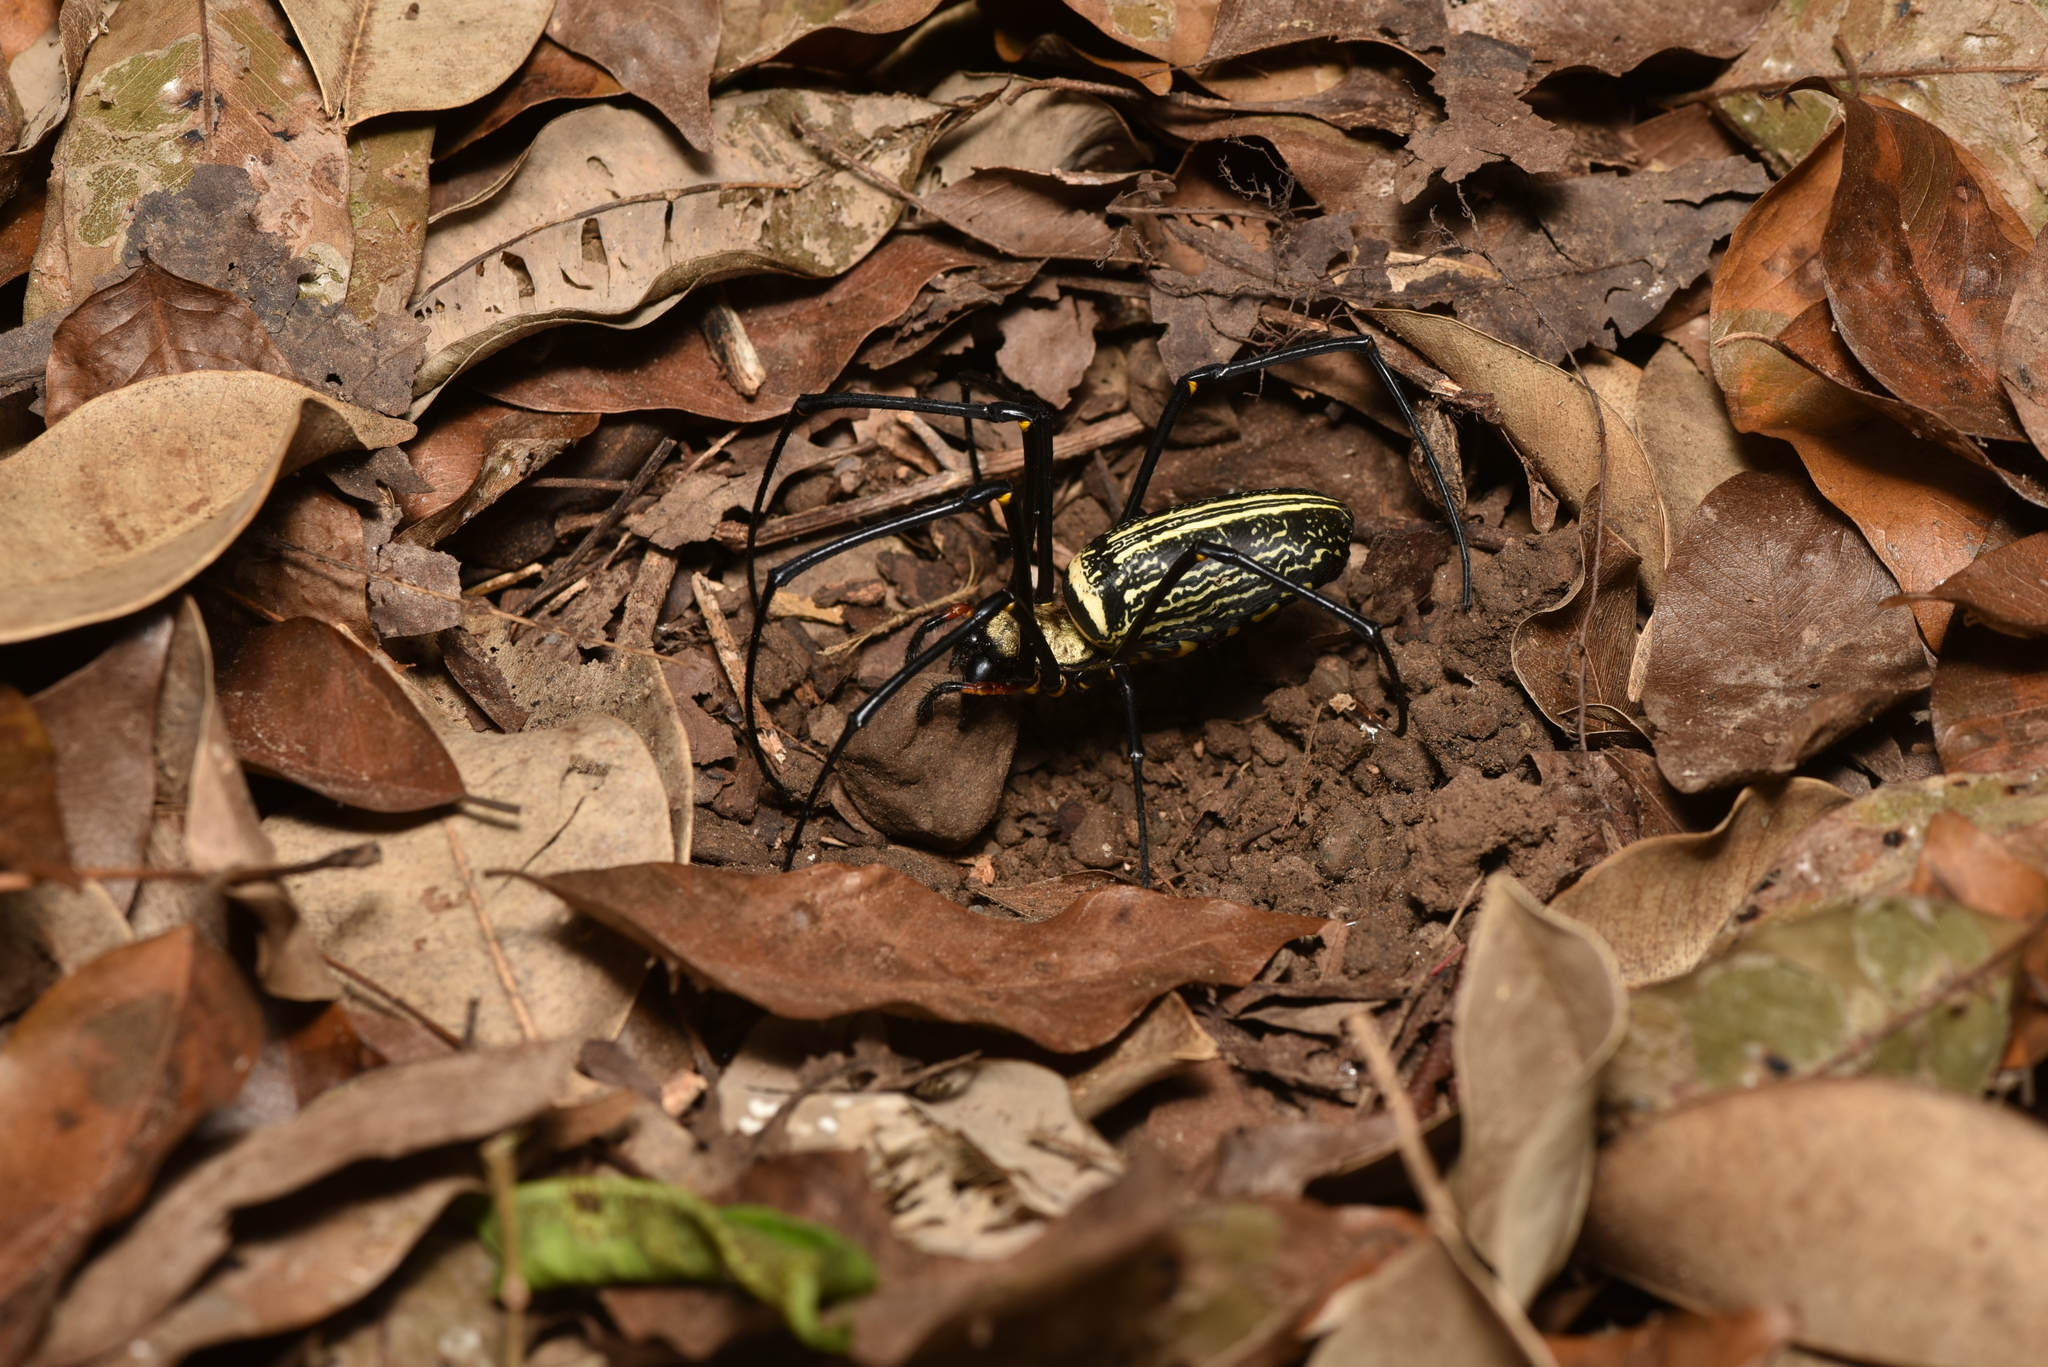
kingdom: Animalia
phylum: Arthropoda
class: Arachnida
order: Araneae
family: Araneidae
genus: Nephila
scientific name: Nephila pilipes
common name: Giant golden orb weaver
